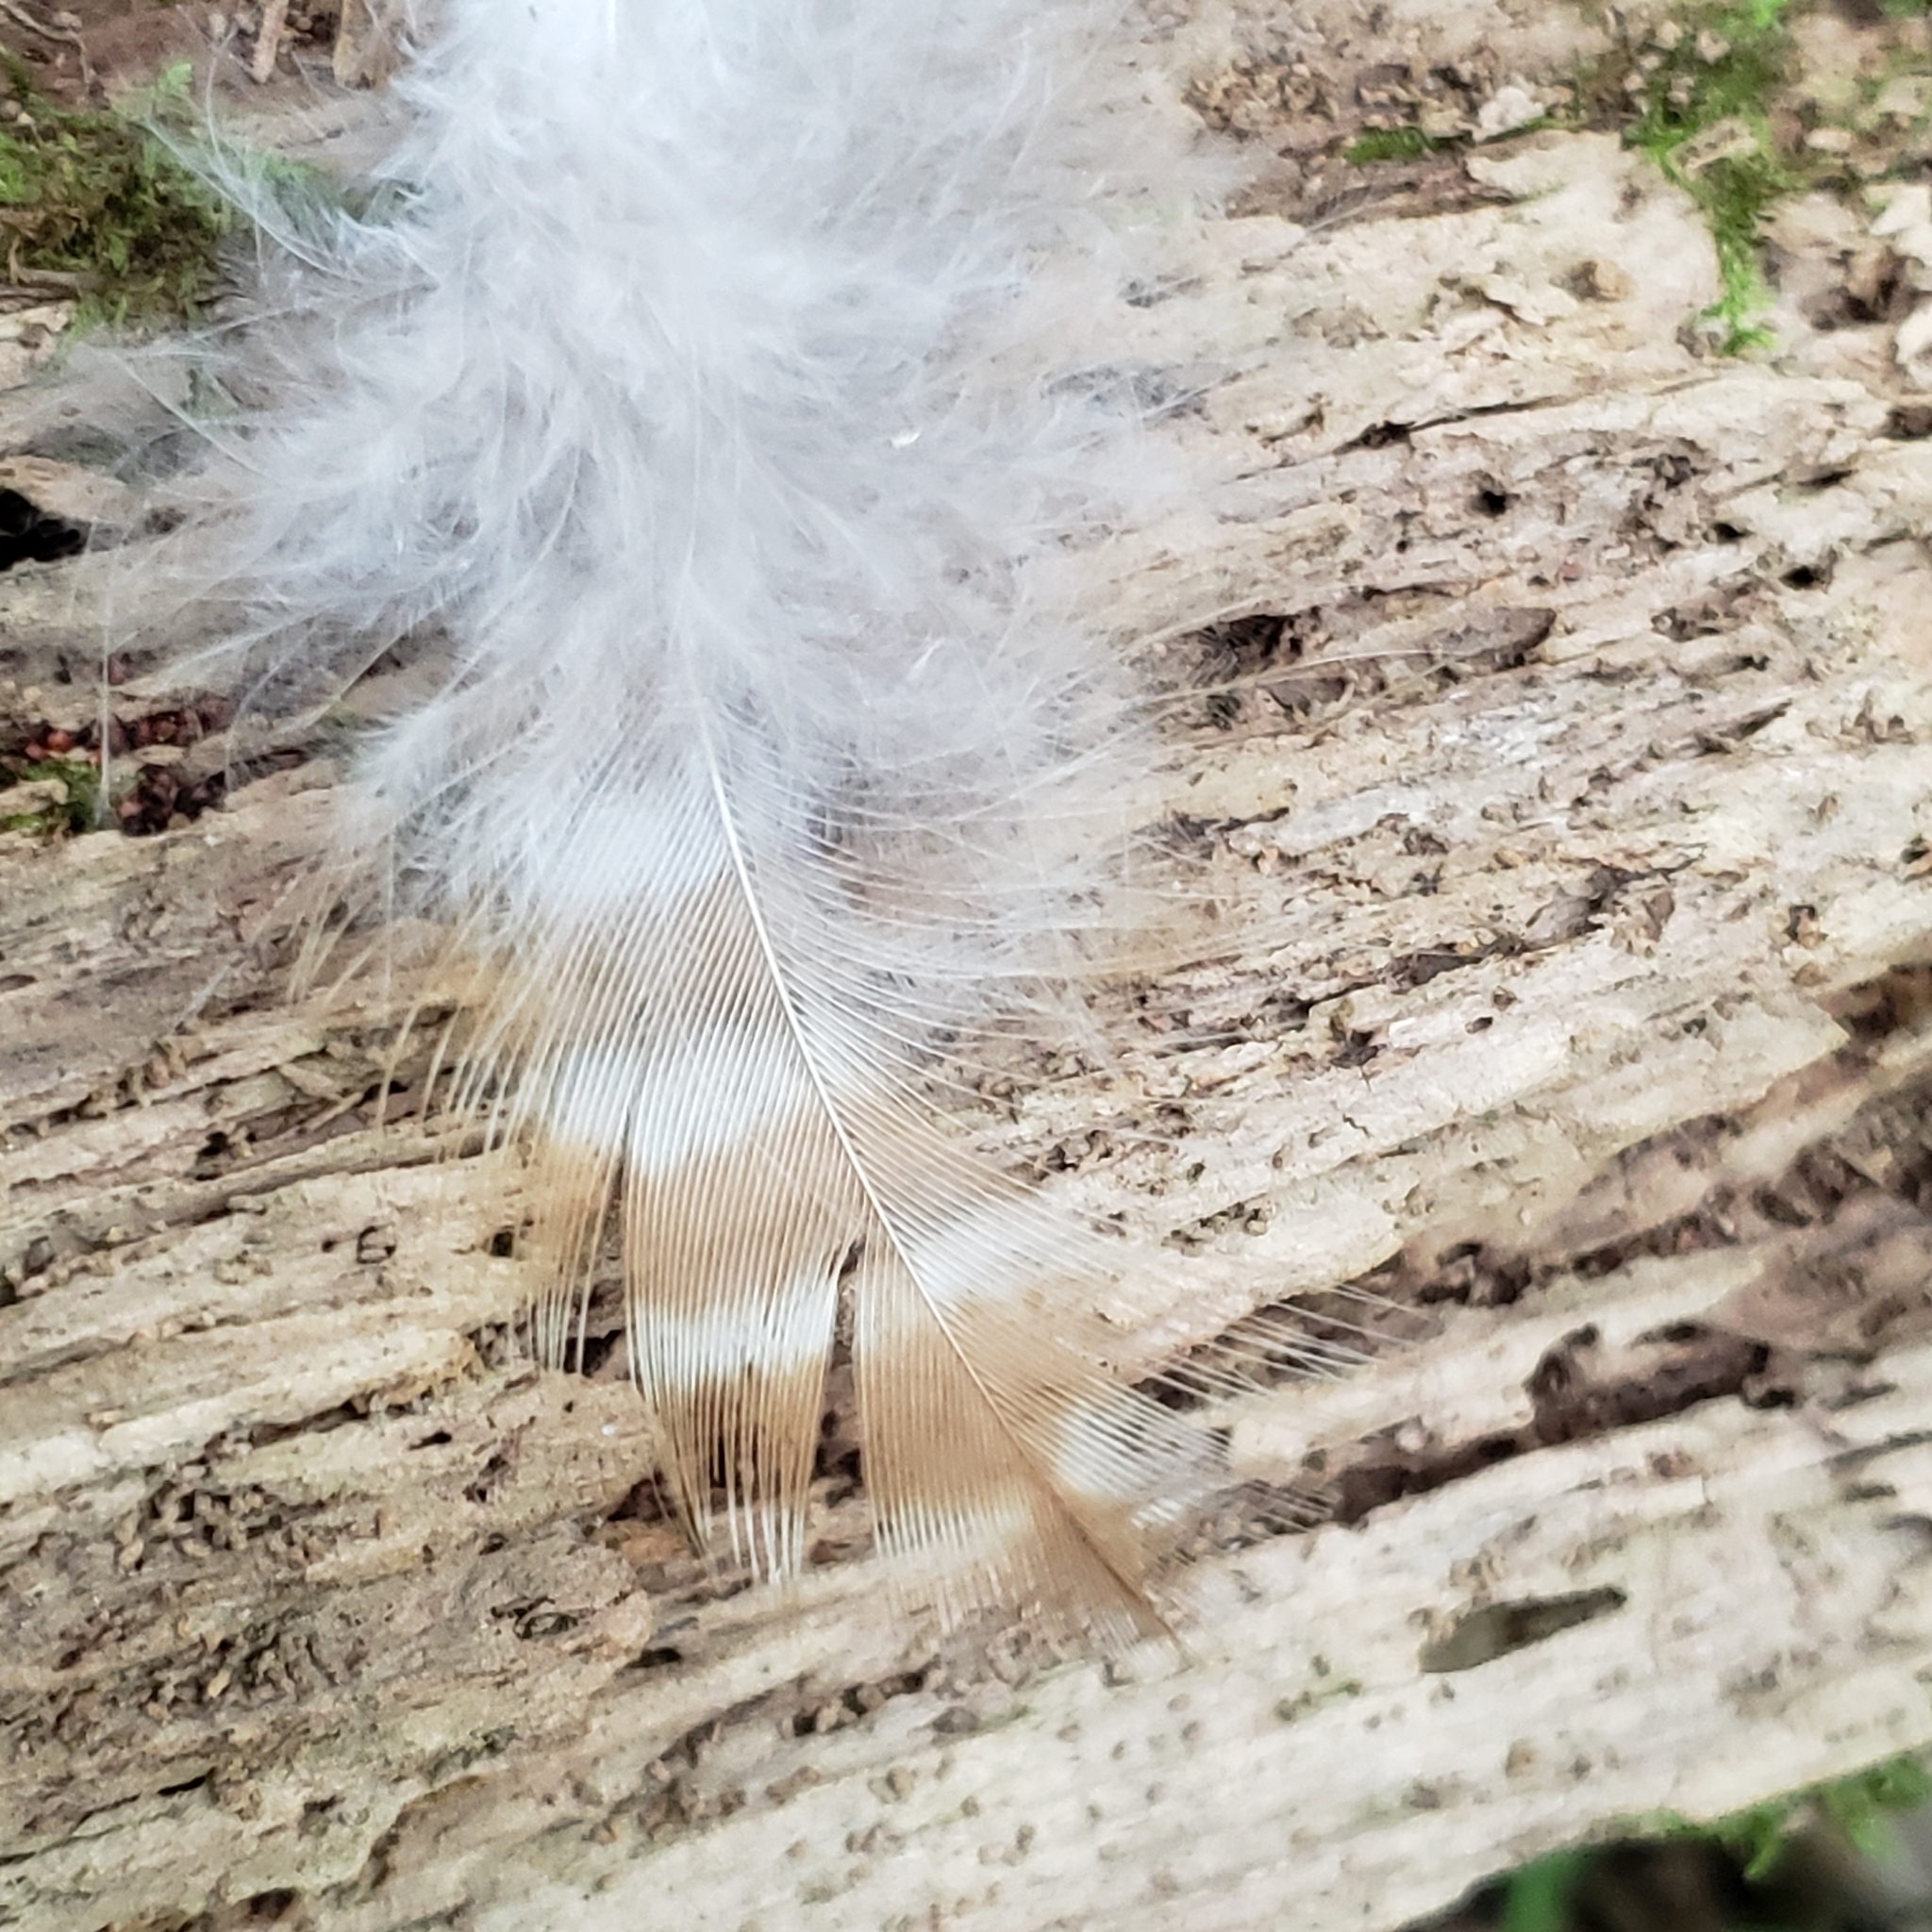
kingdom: Animalia
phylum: Chordata
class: Aves
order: Accipitriformes
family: Accipitridae
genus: Buteo
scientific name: Buteo lineatus
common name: Red-shouldered hawk
